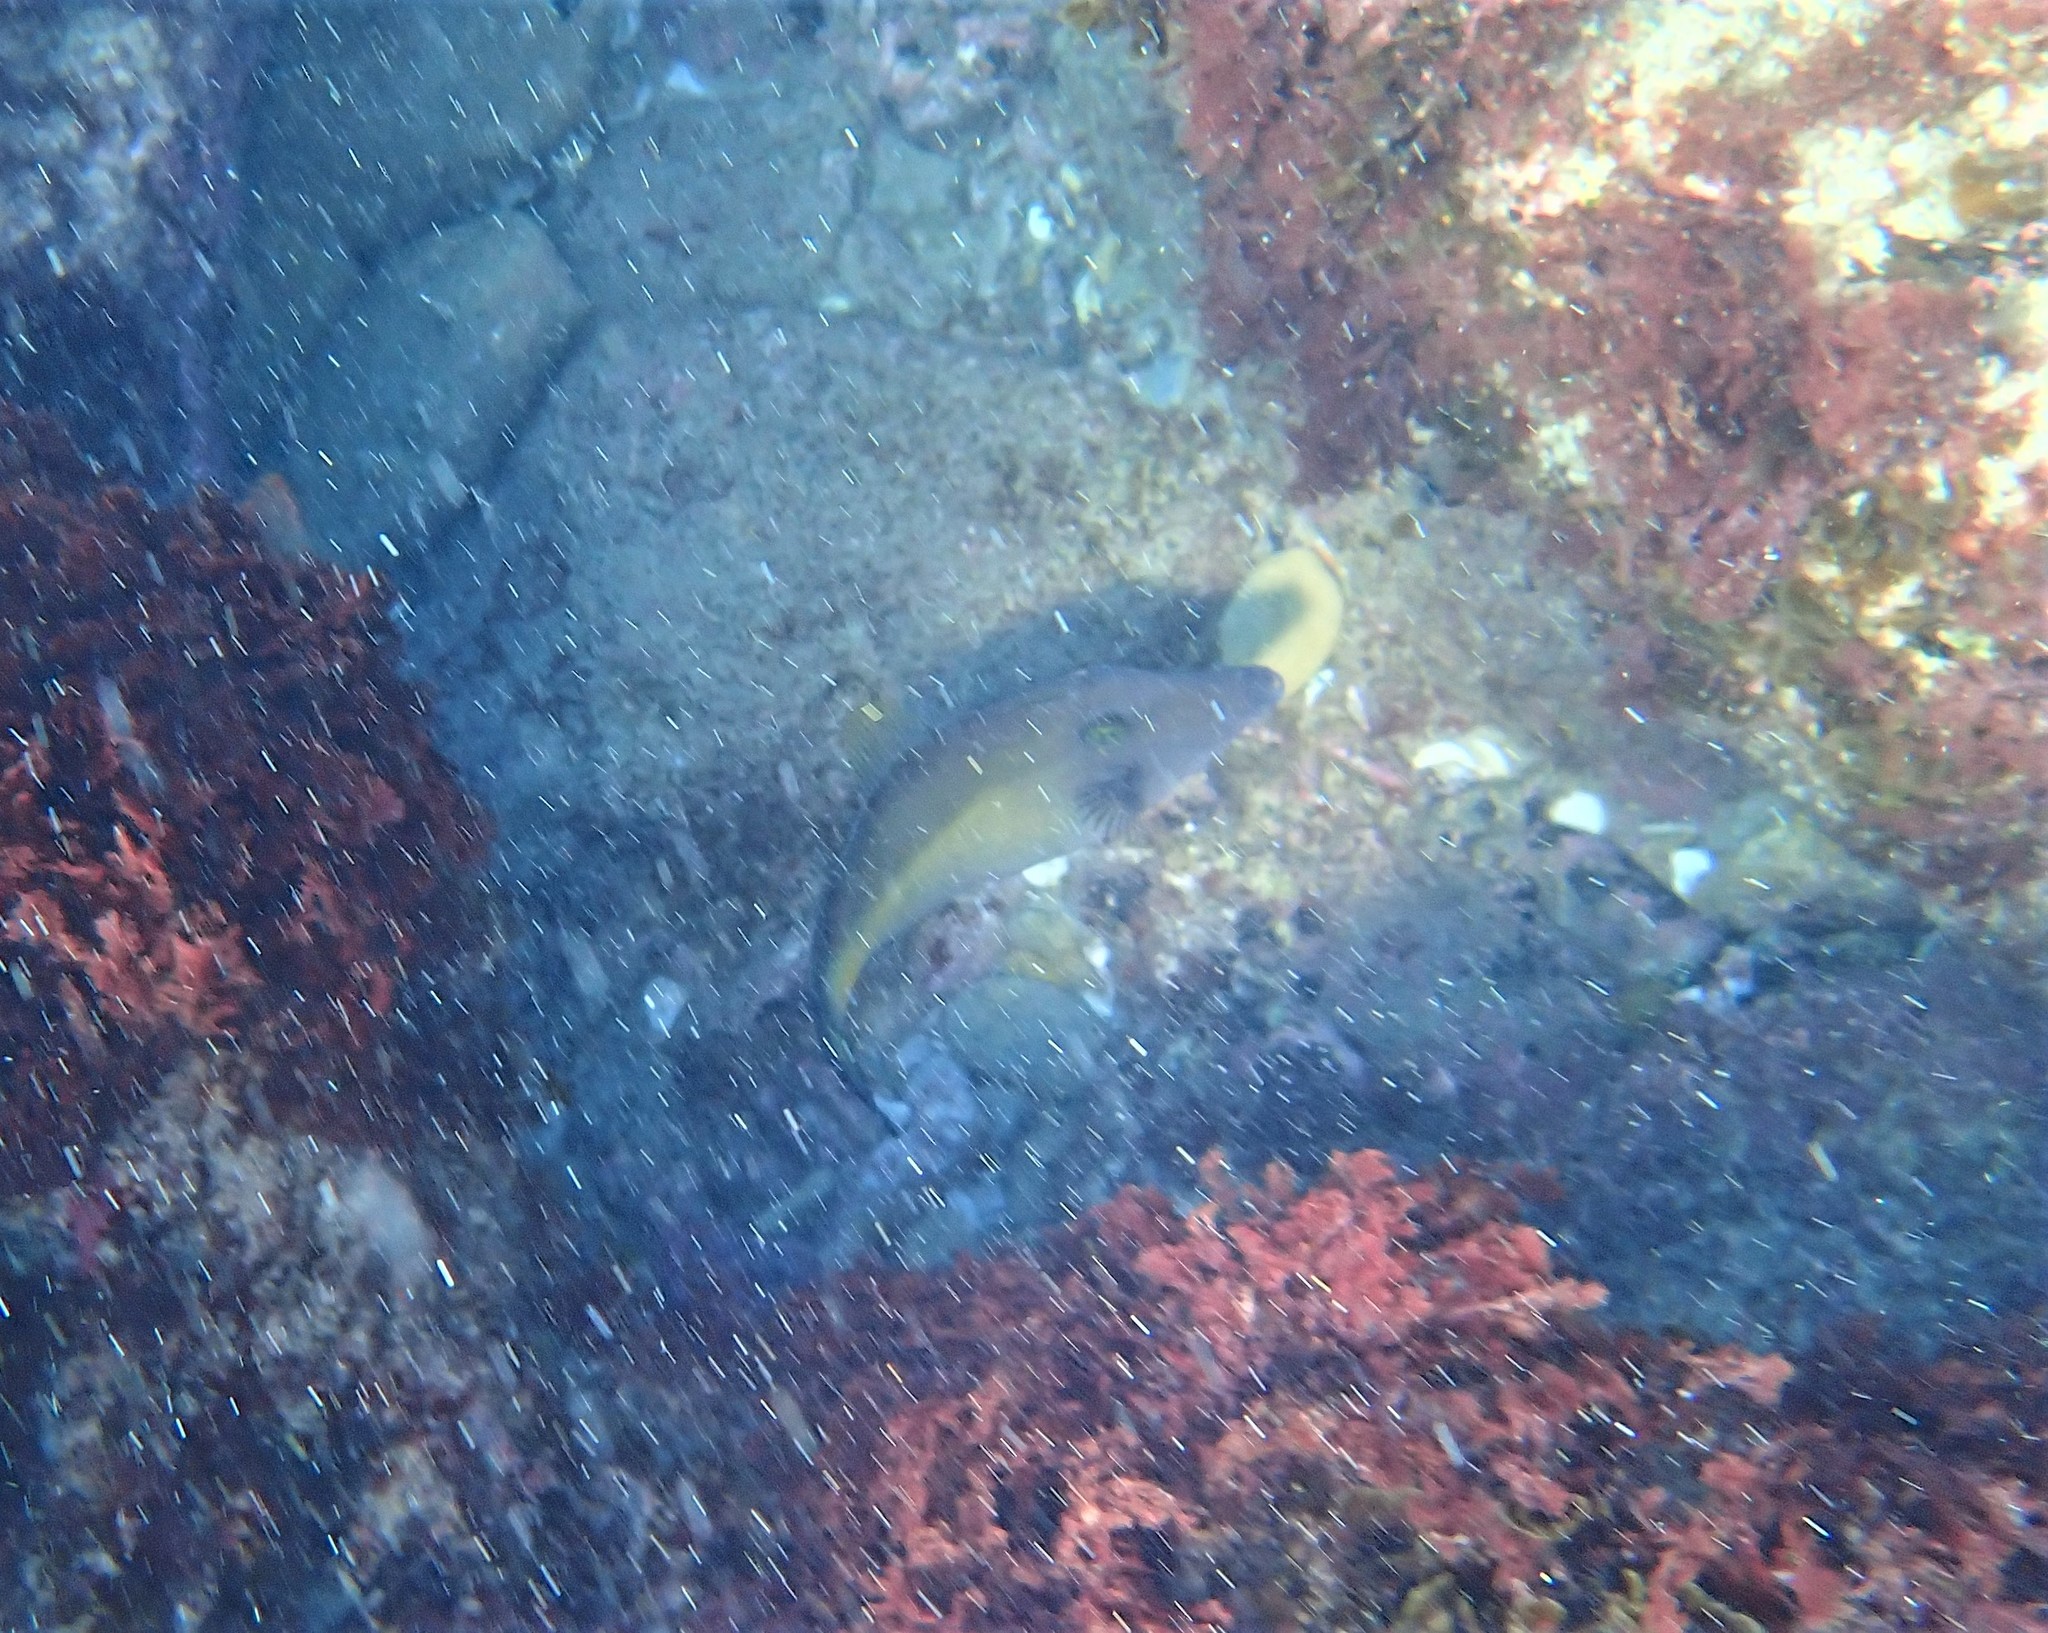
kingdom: Animalia
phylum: Chordata
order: Tetraodontiformes
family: Monacanthidae
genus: Meuschenia
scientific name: Meuschenia flavolineata
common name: Yellowstriped leatherjacket
